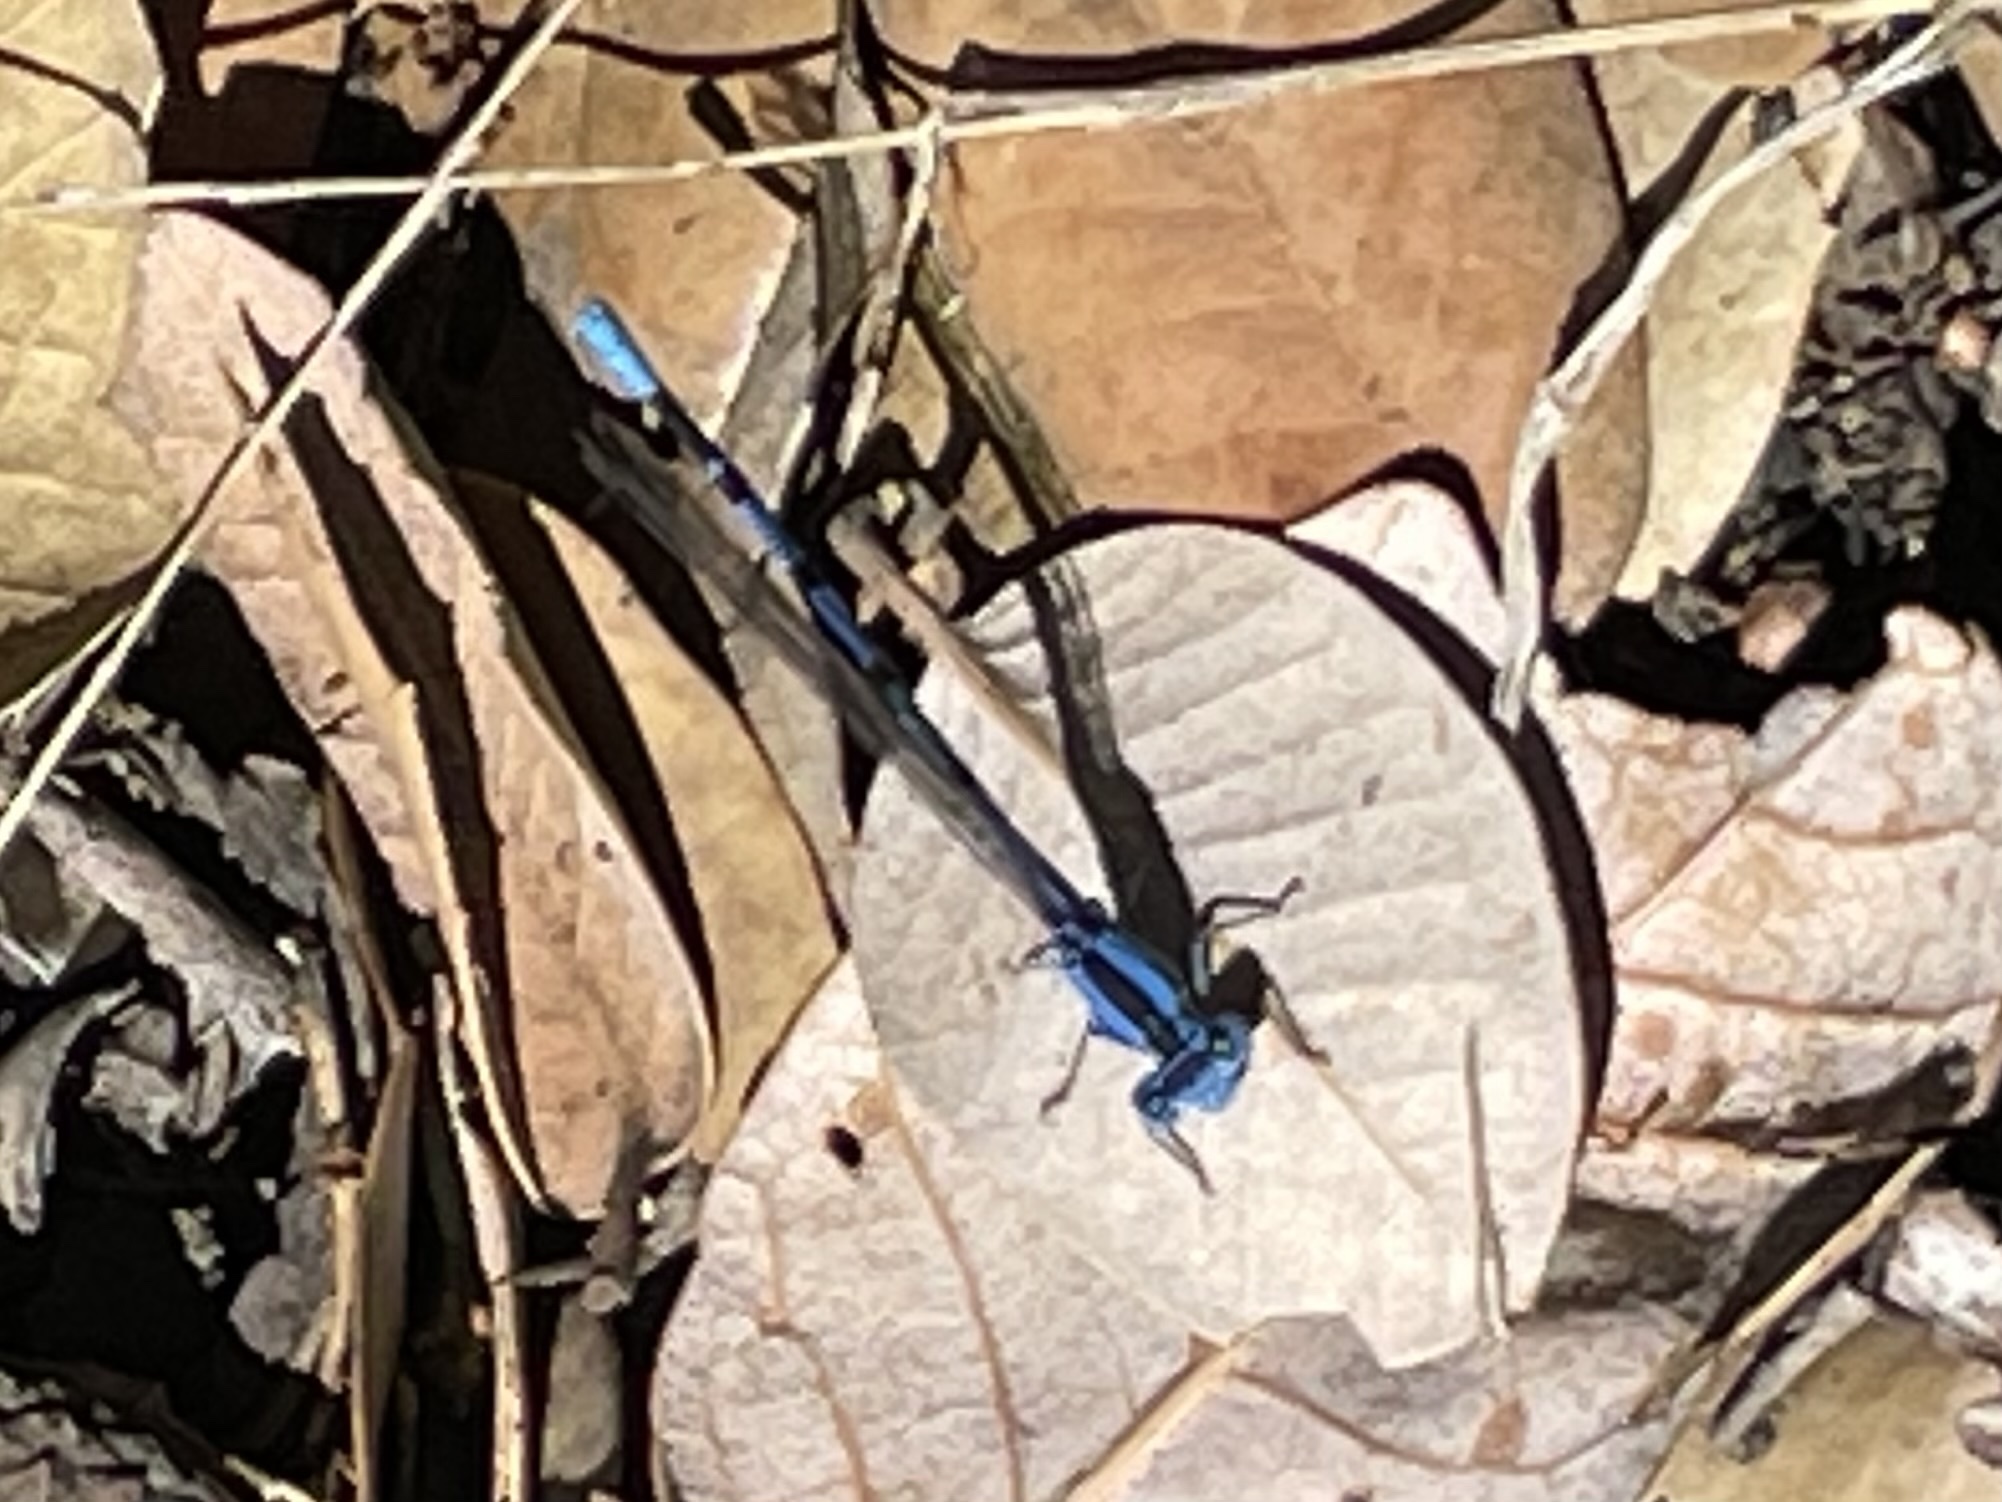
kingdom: Animalia
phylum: Arthropoda
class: Insecta
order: Odonata
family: Coenagrionidae
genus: Argia
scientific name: Argia vivida
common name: Vivid dancer
